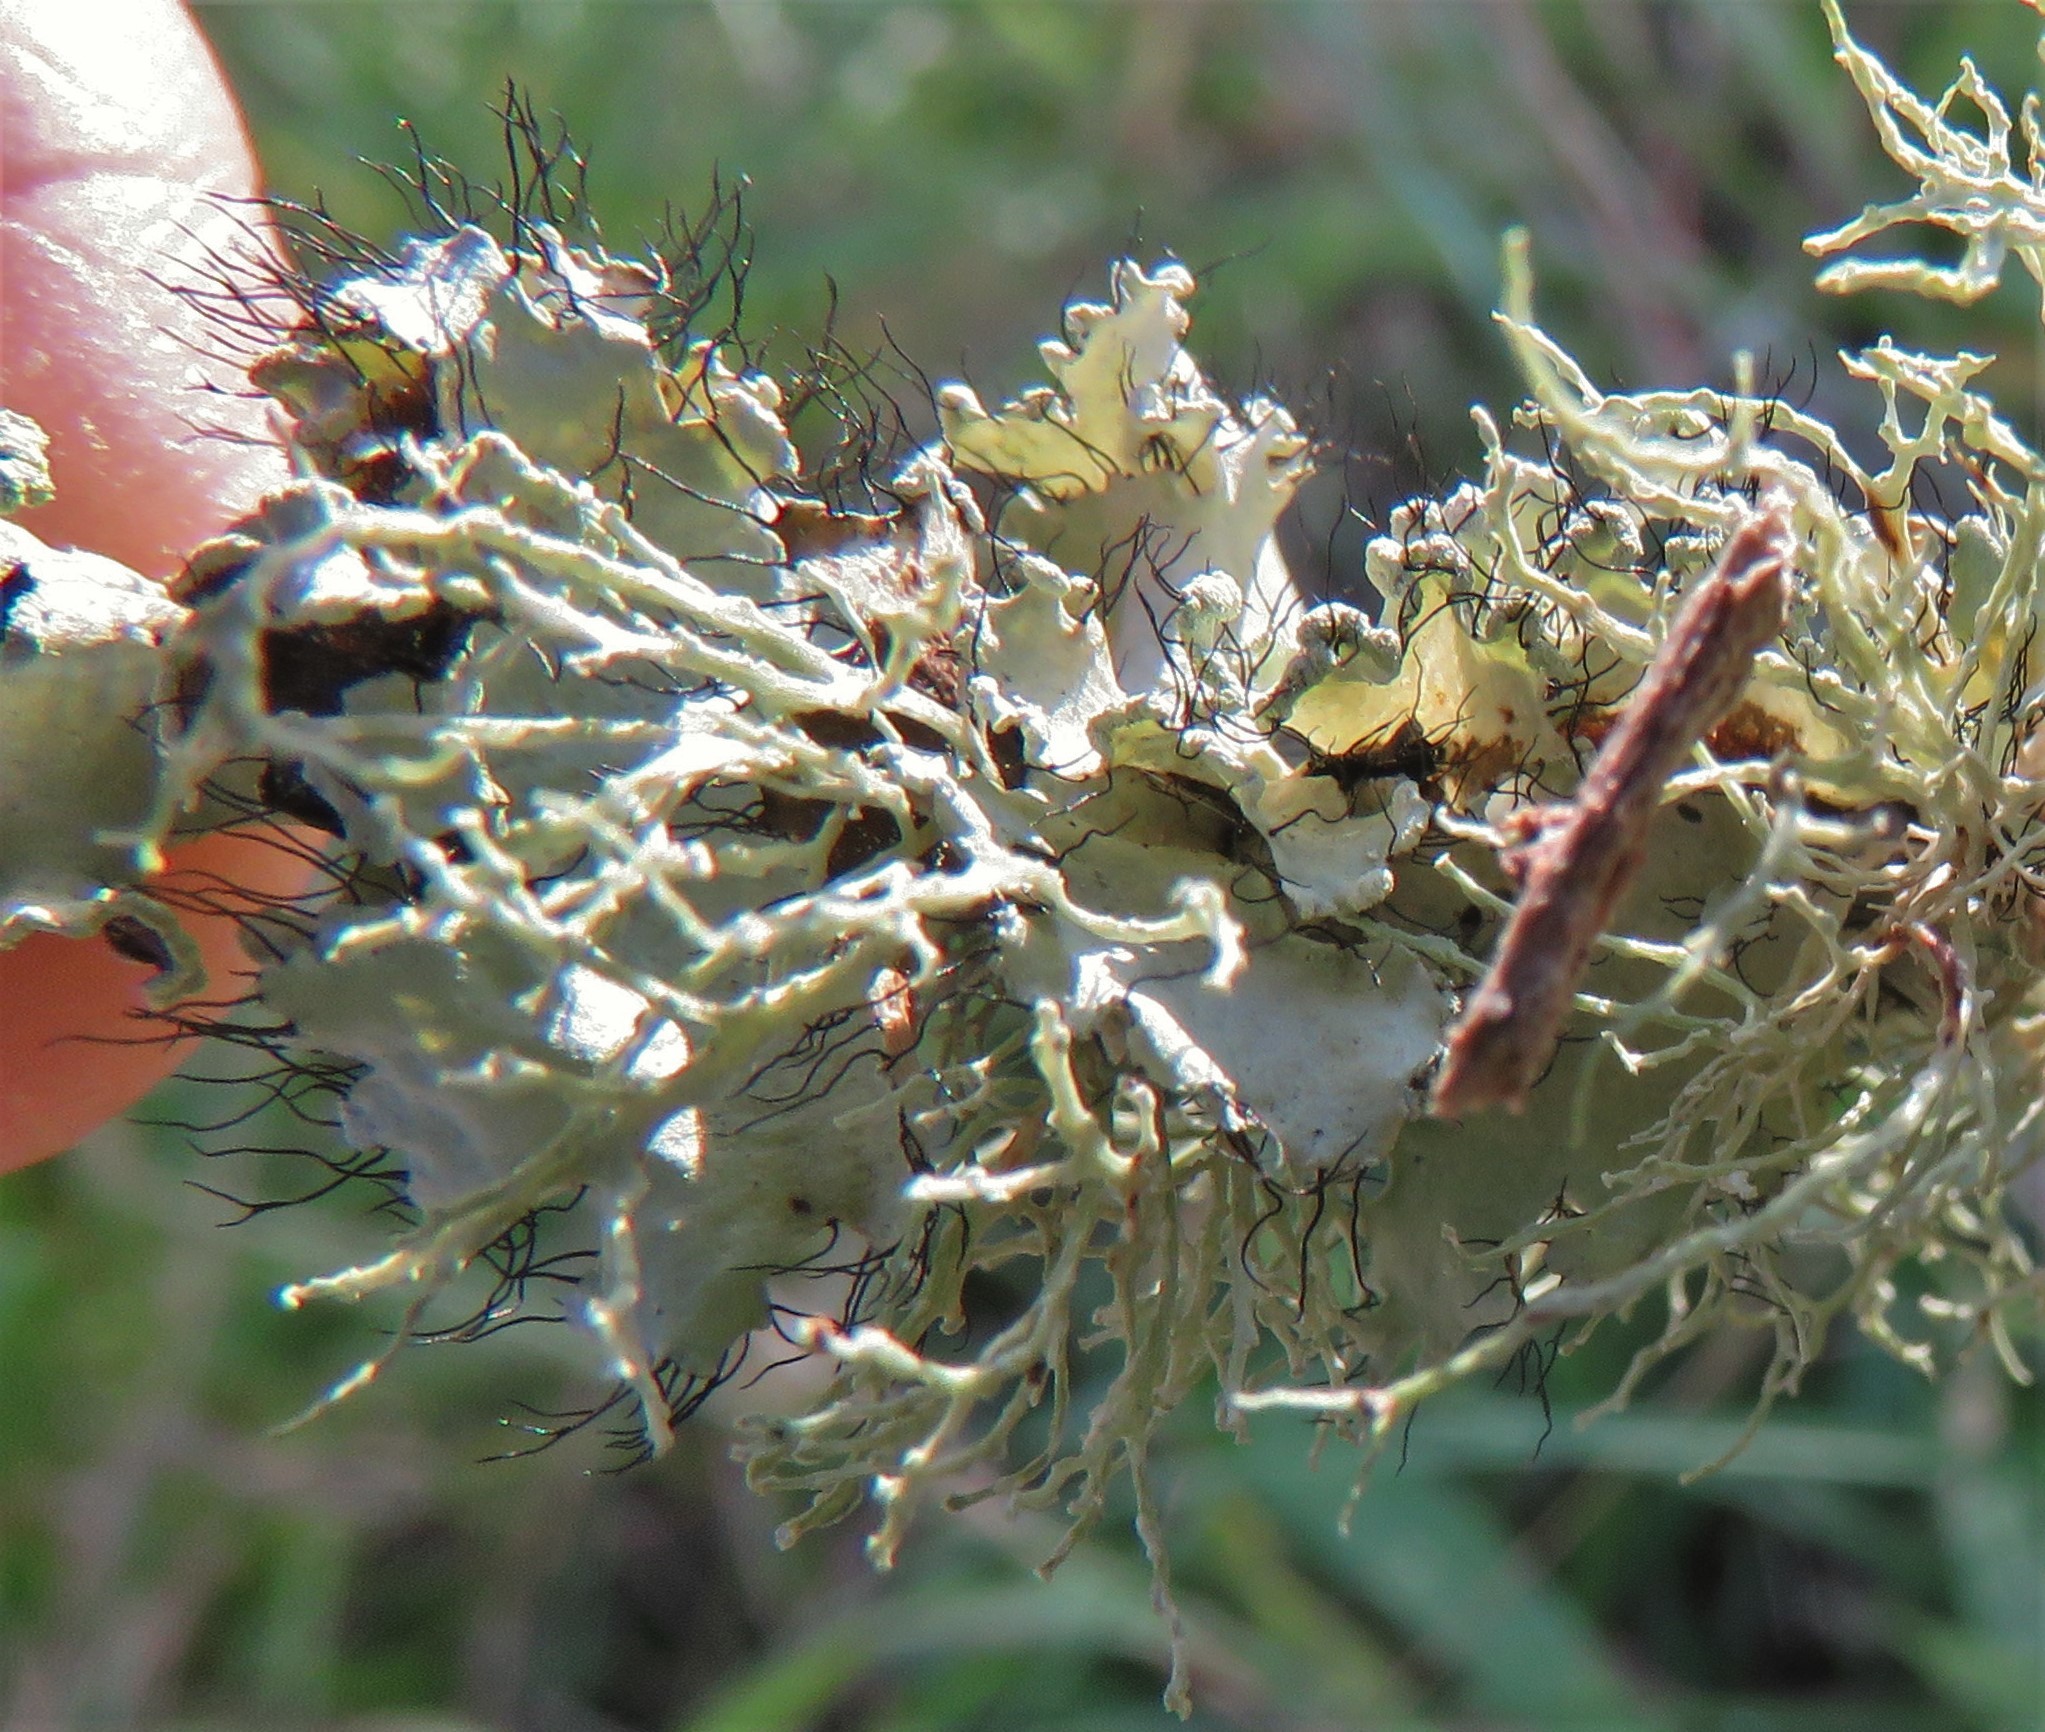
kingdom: Fungi
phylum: Ascomycota
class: Lecanoromycetes
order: Lecanorales
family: Parmeliaceae
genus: Parmotrema
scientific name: Parmotrema arnoldii
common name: Arnold's parmotrema lichen
